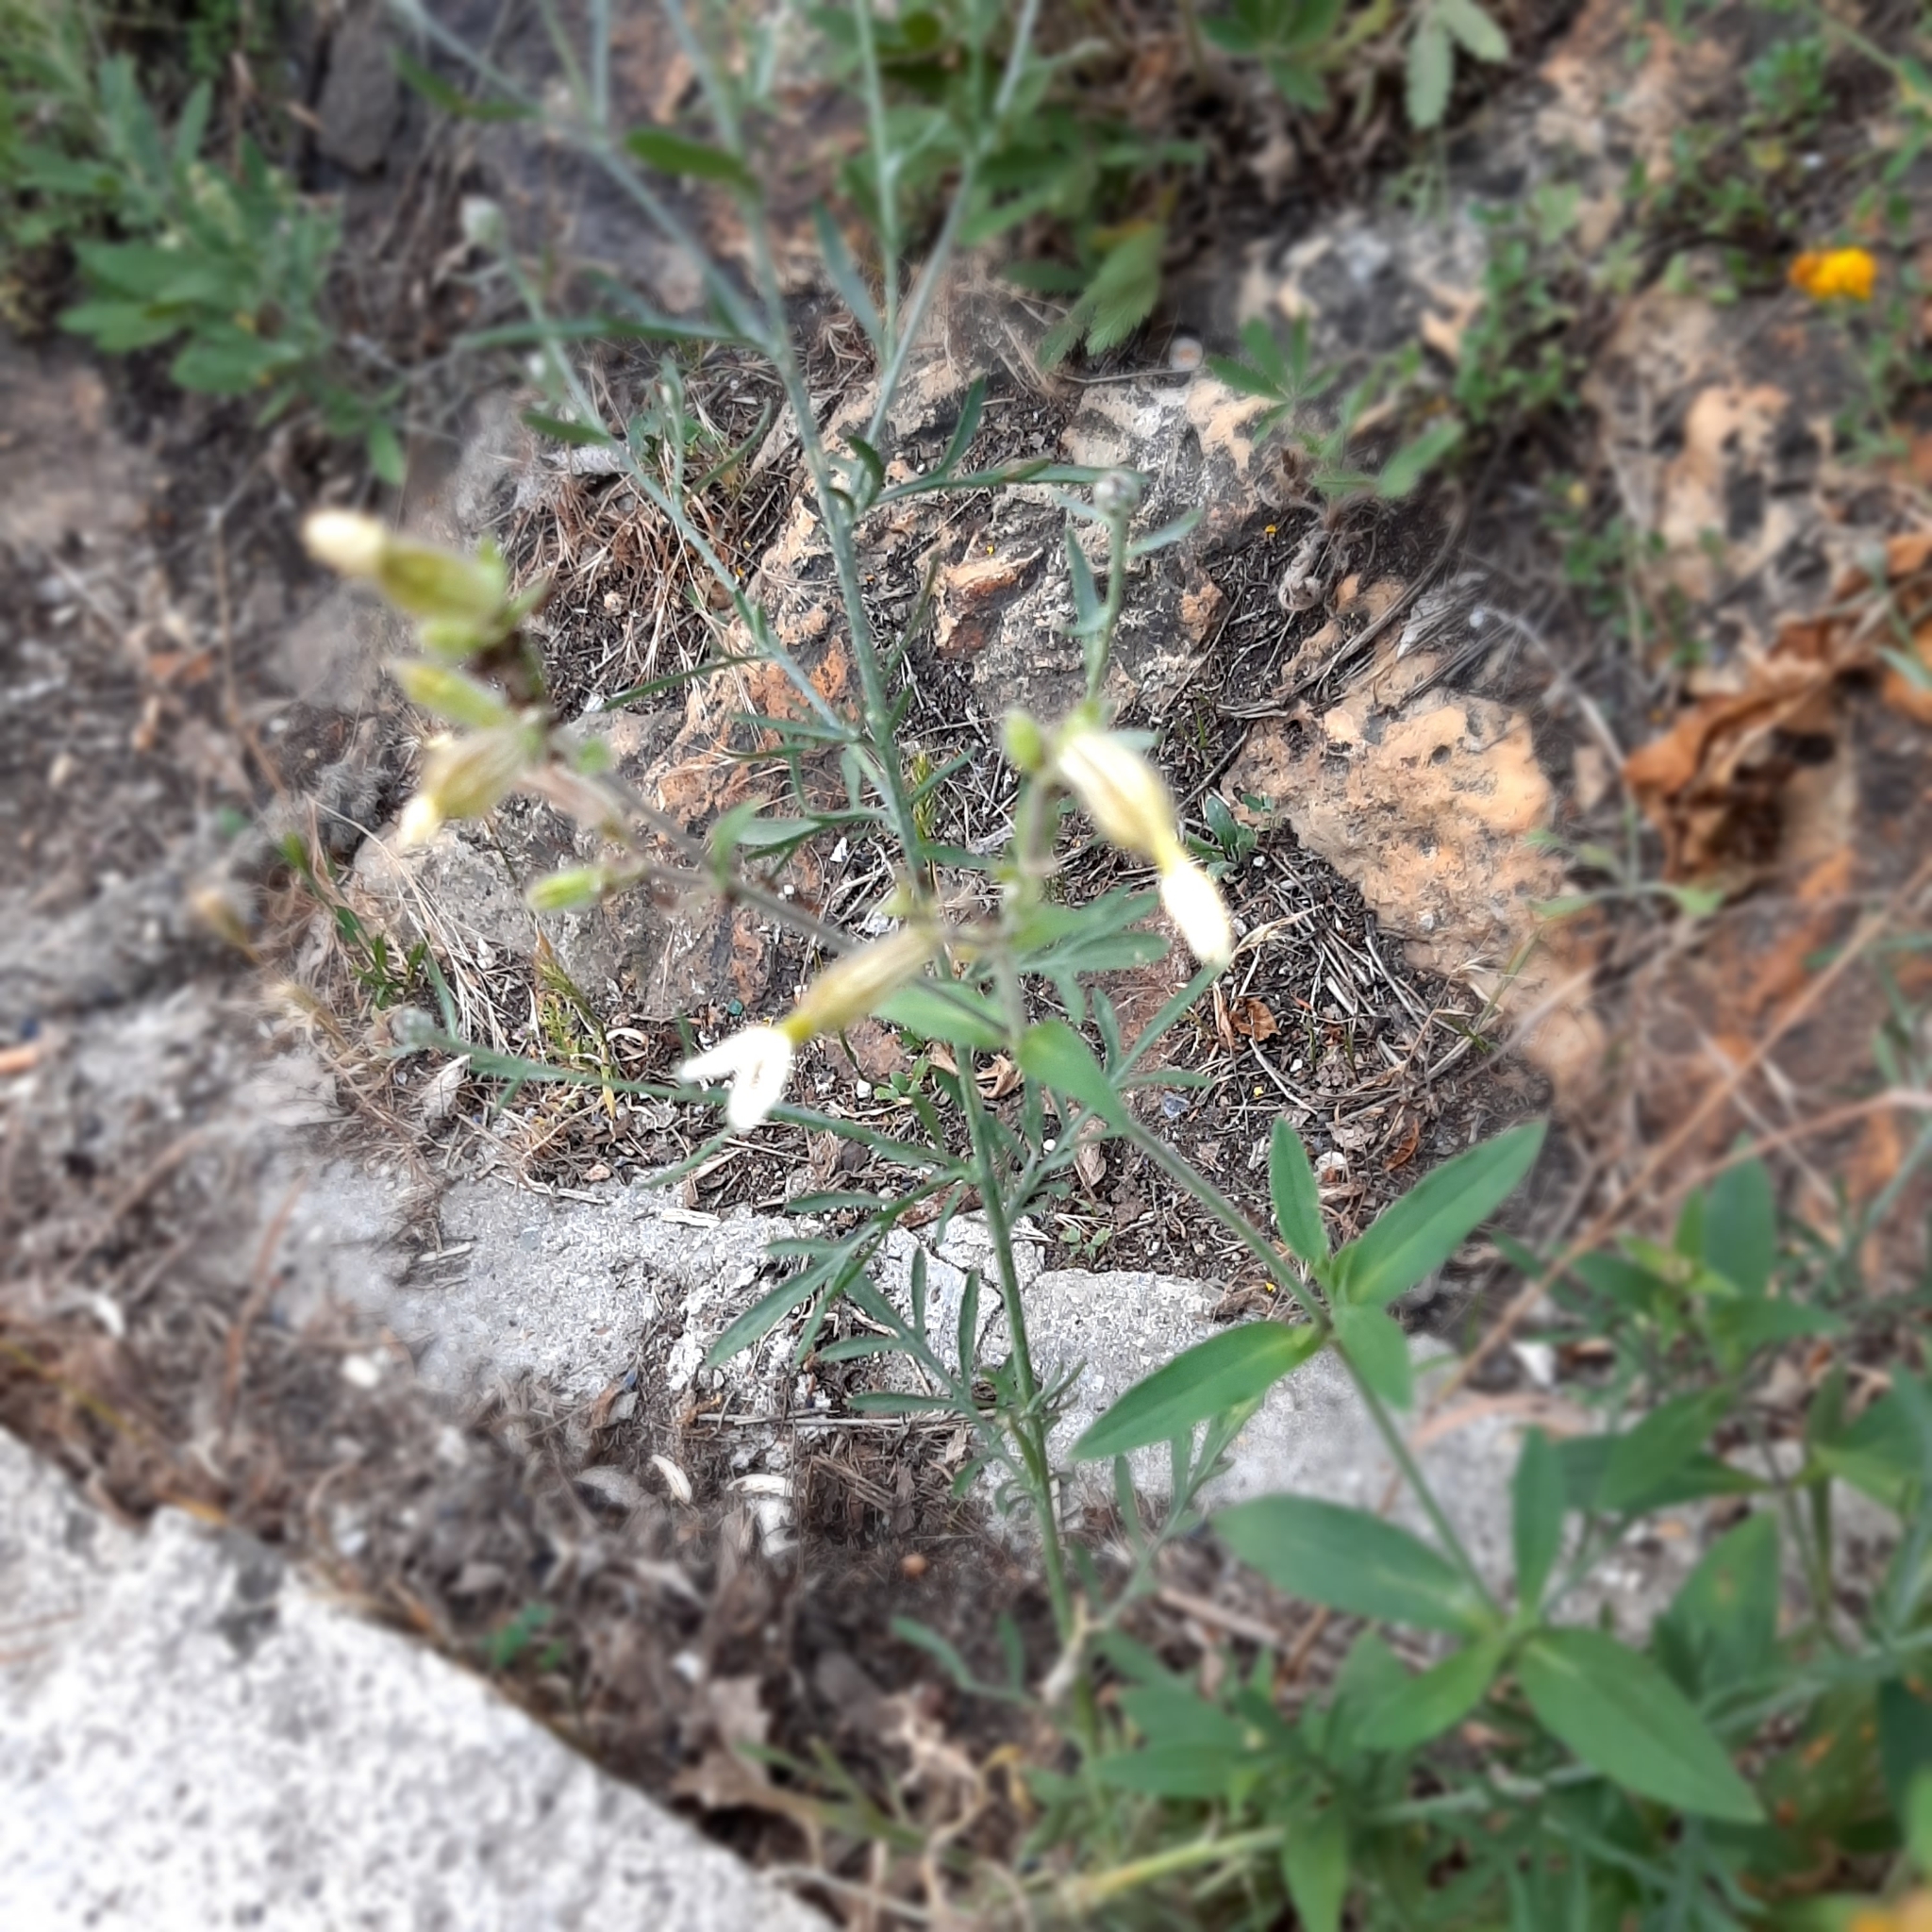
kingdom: Plantae
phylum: Tracheophyta
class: Magnoliopsida
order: Caryophyllales
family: Caryophyllaceae
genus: Silene
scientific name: Silene latifolia
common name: White campion
